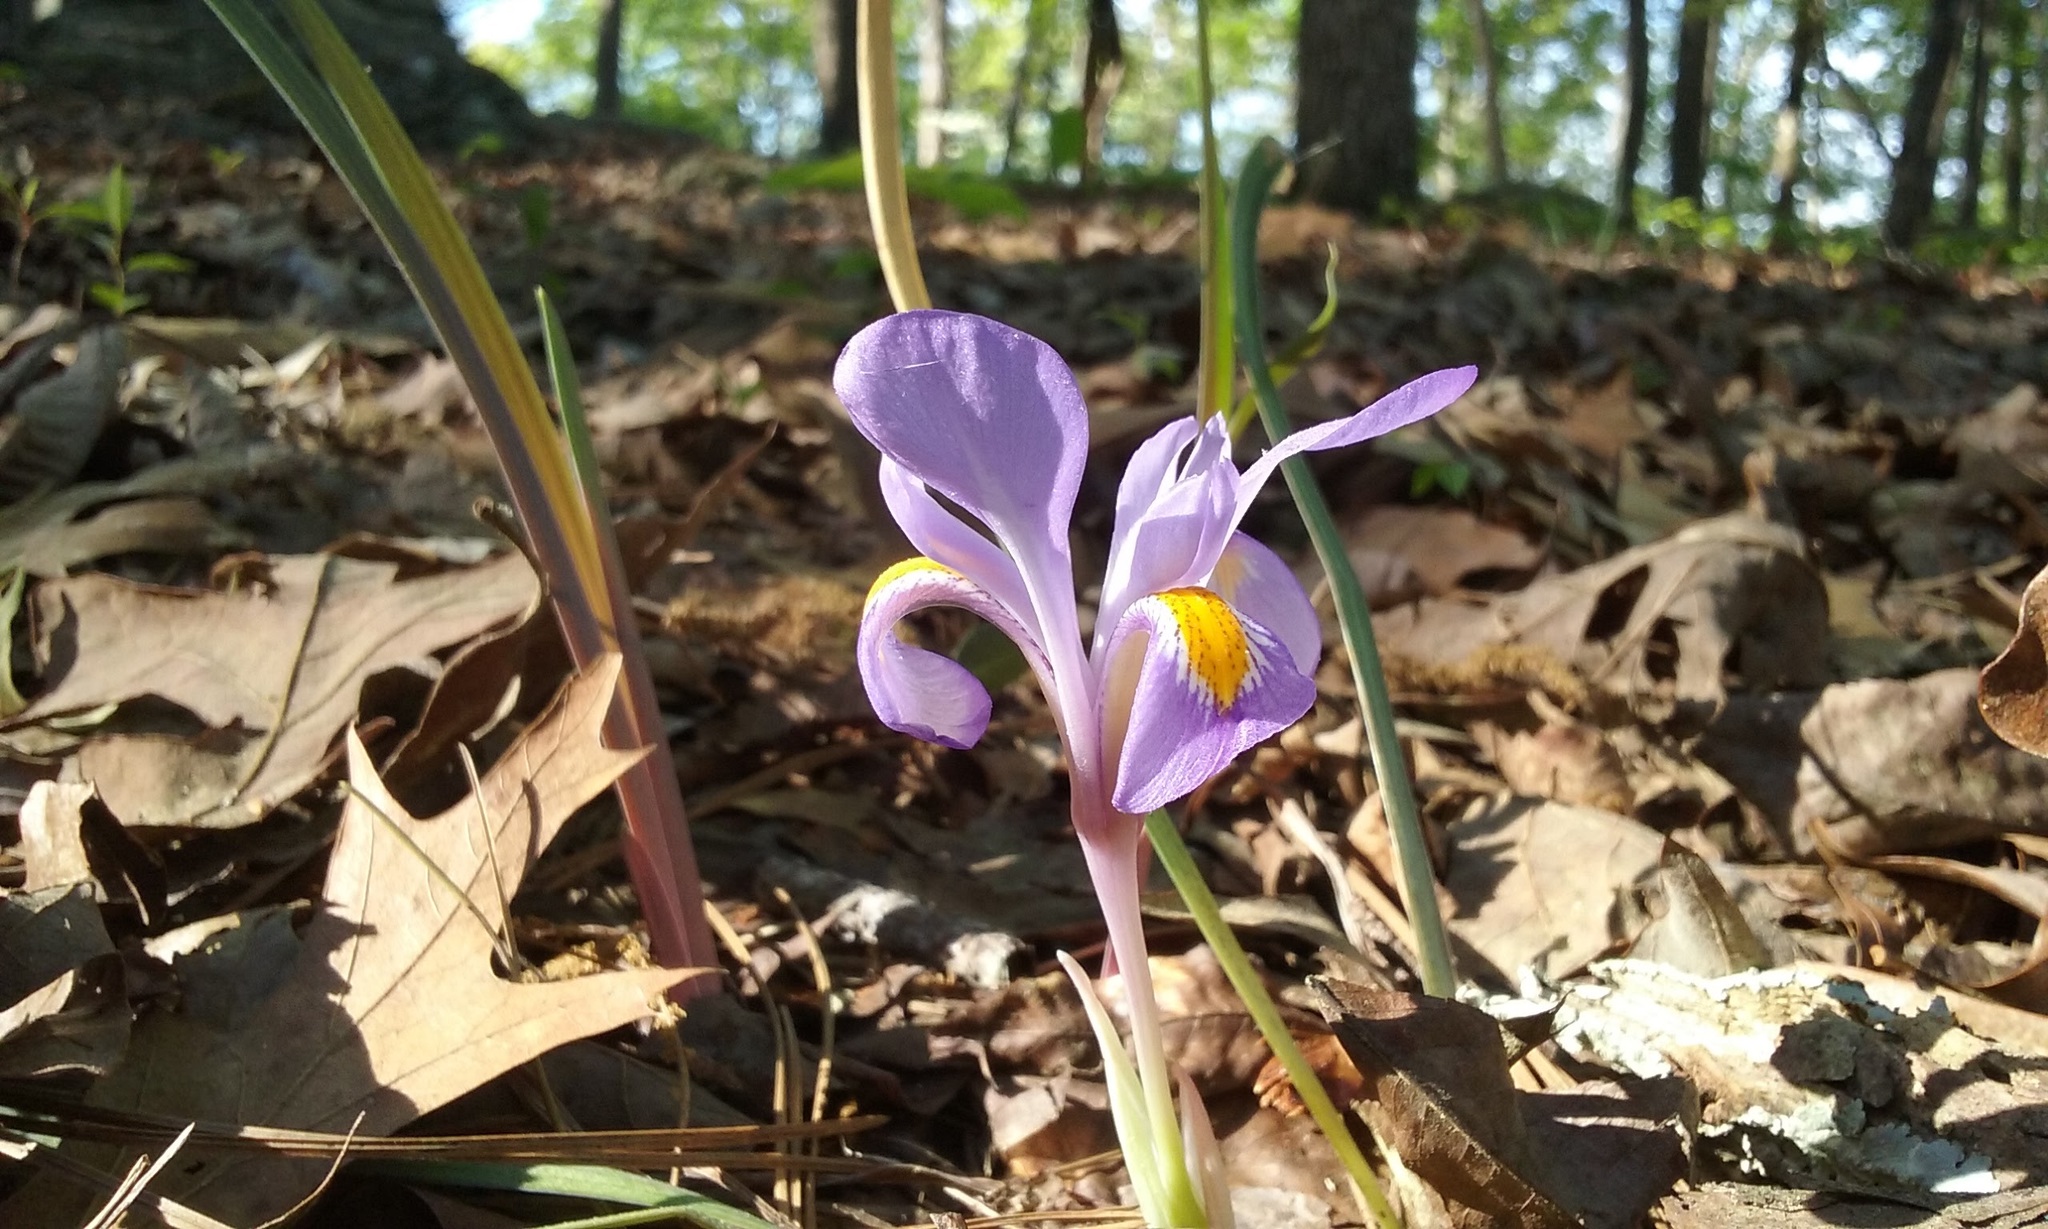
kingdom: Plantae
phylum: Tracheophyta
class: Liliopsida
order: Asparagales
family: Iridaceae
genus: Iris
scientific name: Iris verna
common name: Dwarf iris
